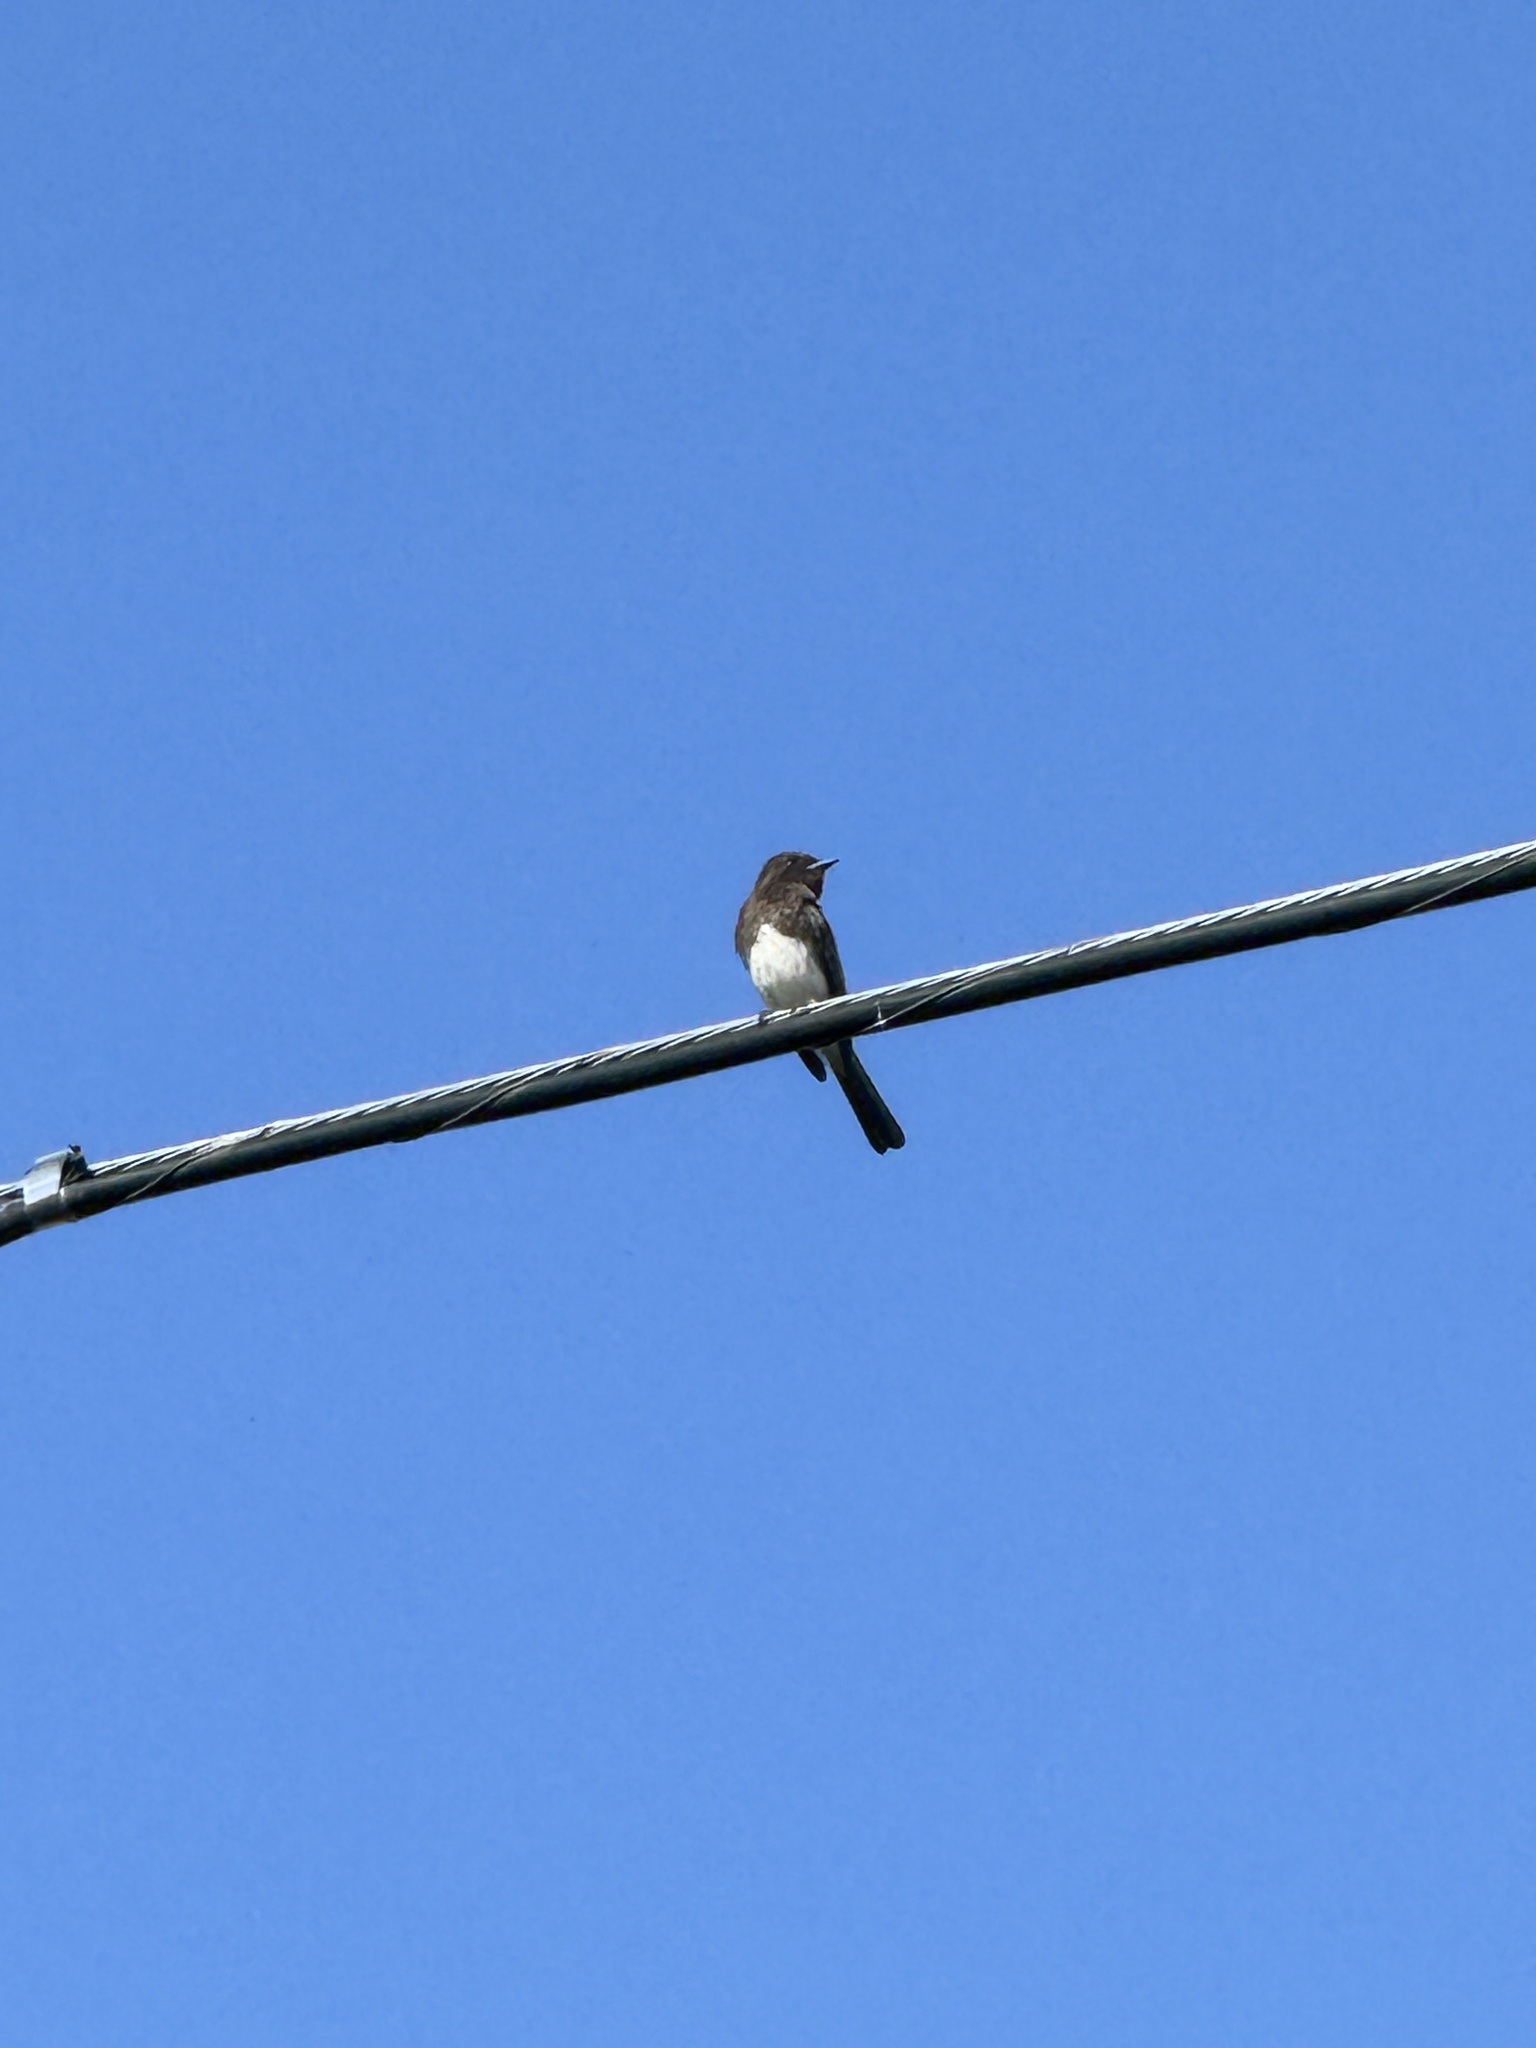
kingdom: Animalia
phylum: Chordata
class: Aves
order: Passeriformes
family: Tyrannidae
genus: Sayornis
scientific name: Sayornis nigricans
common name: Black phoebe
